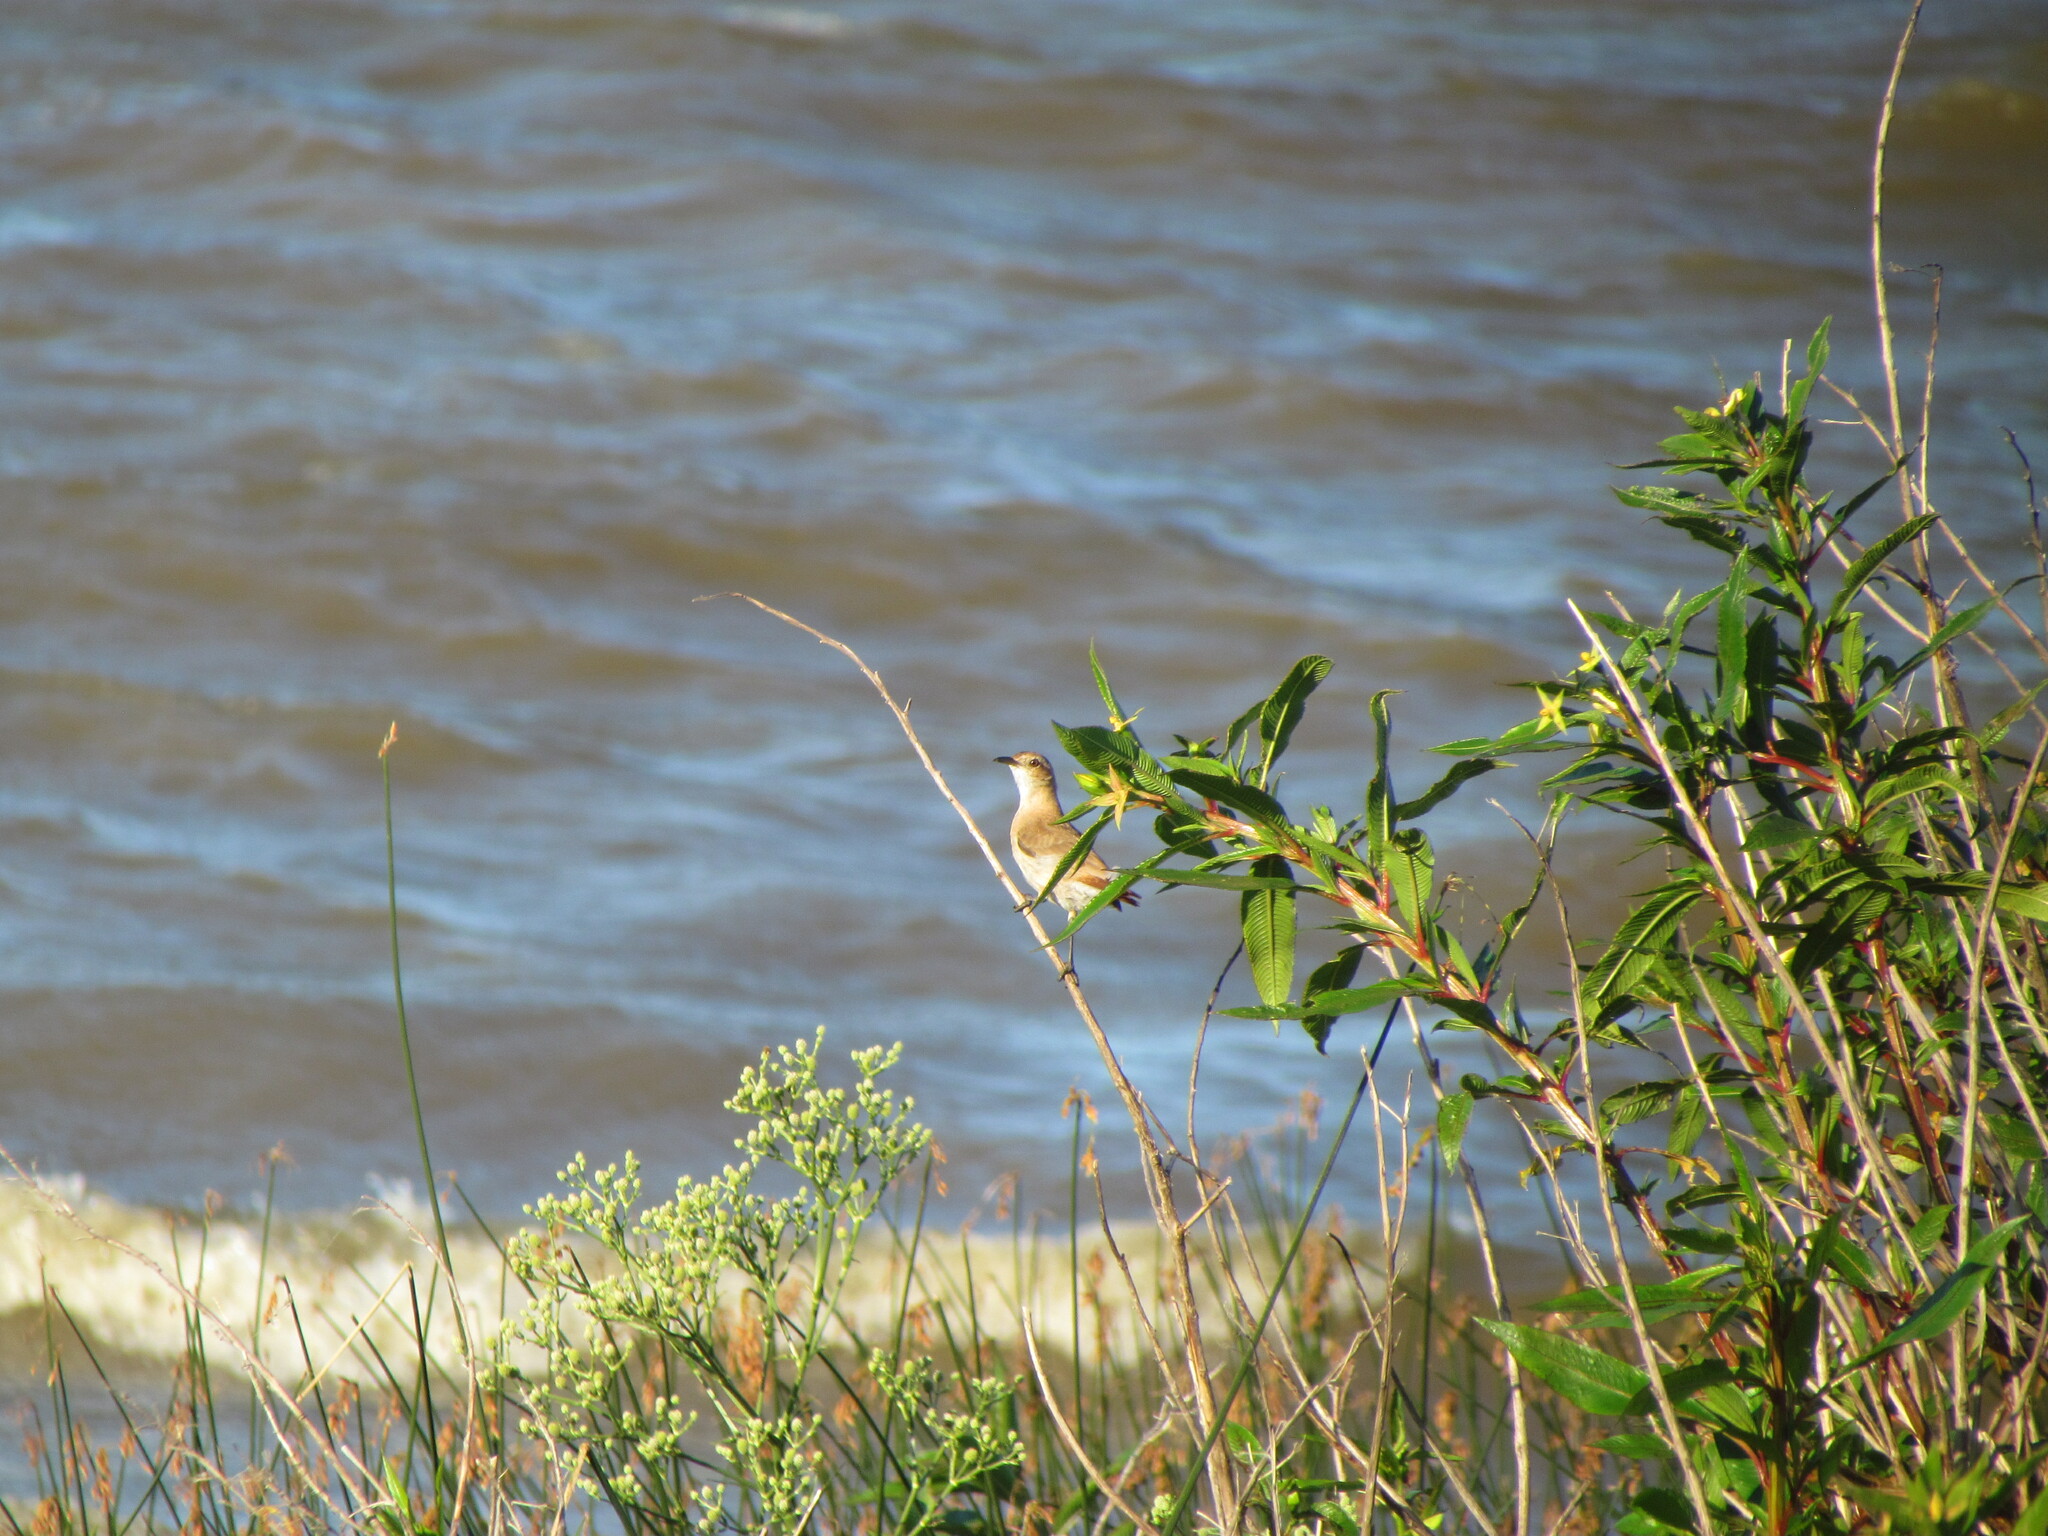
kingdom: Animalia
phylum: Chordata
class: Aves
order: Passeriformes
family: Furnariidae
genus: Furnarius
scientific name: Furnarius rufus
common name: Rufous hornero
